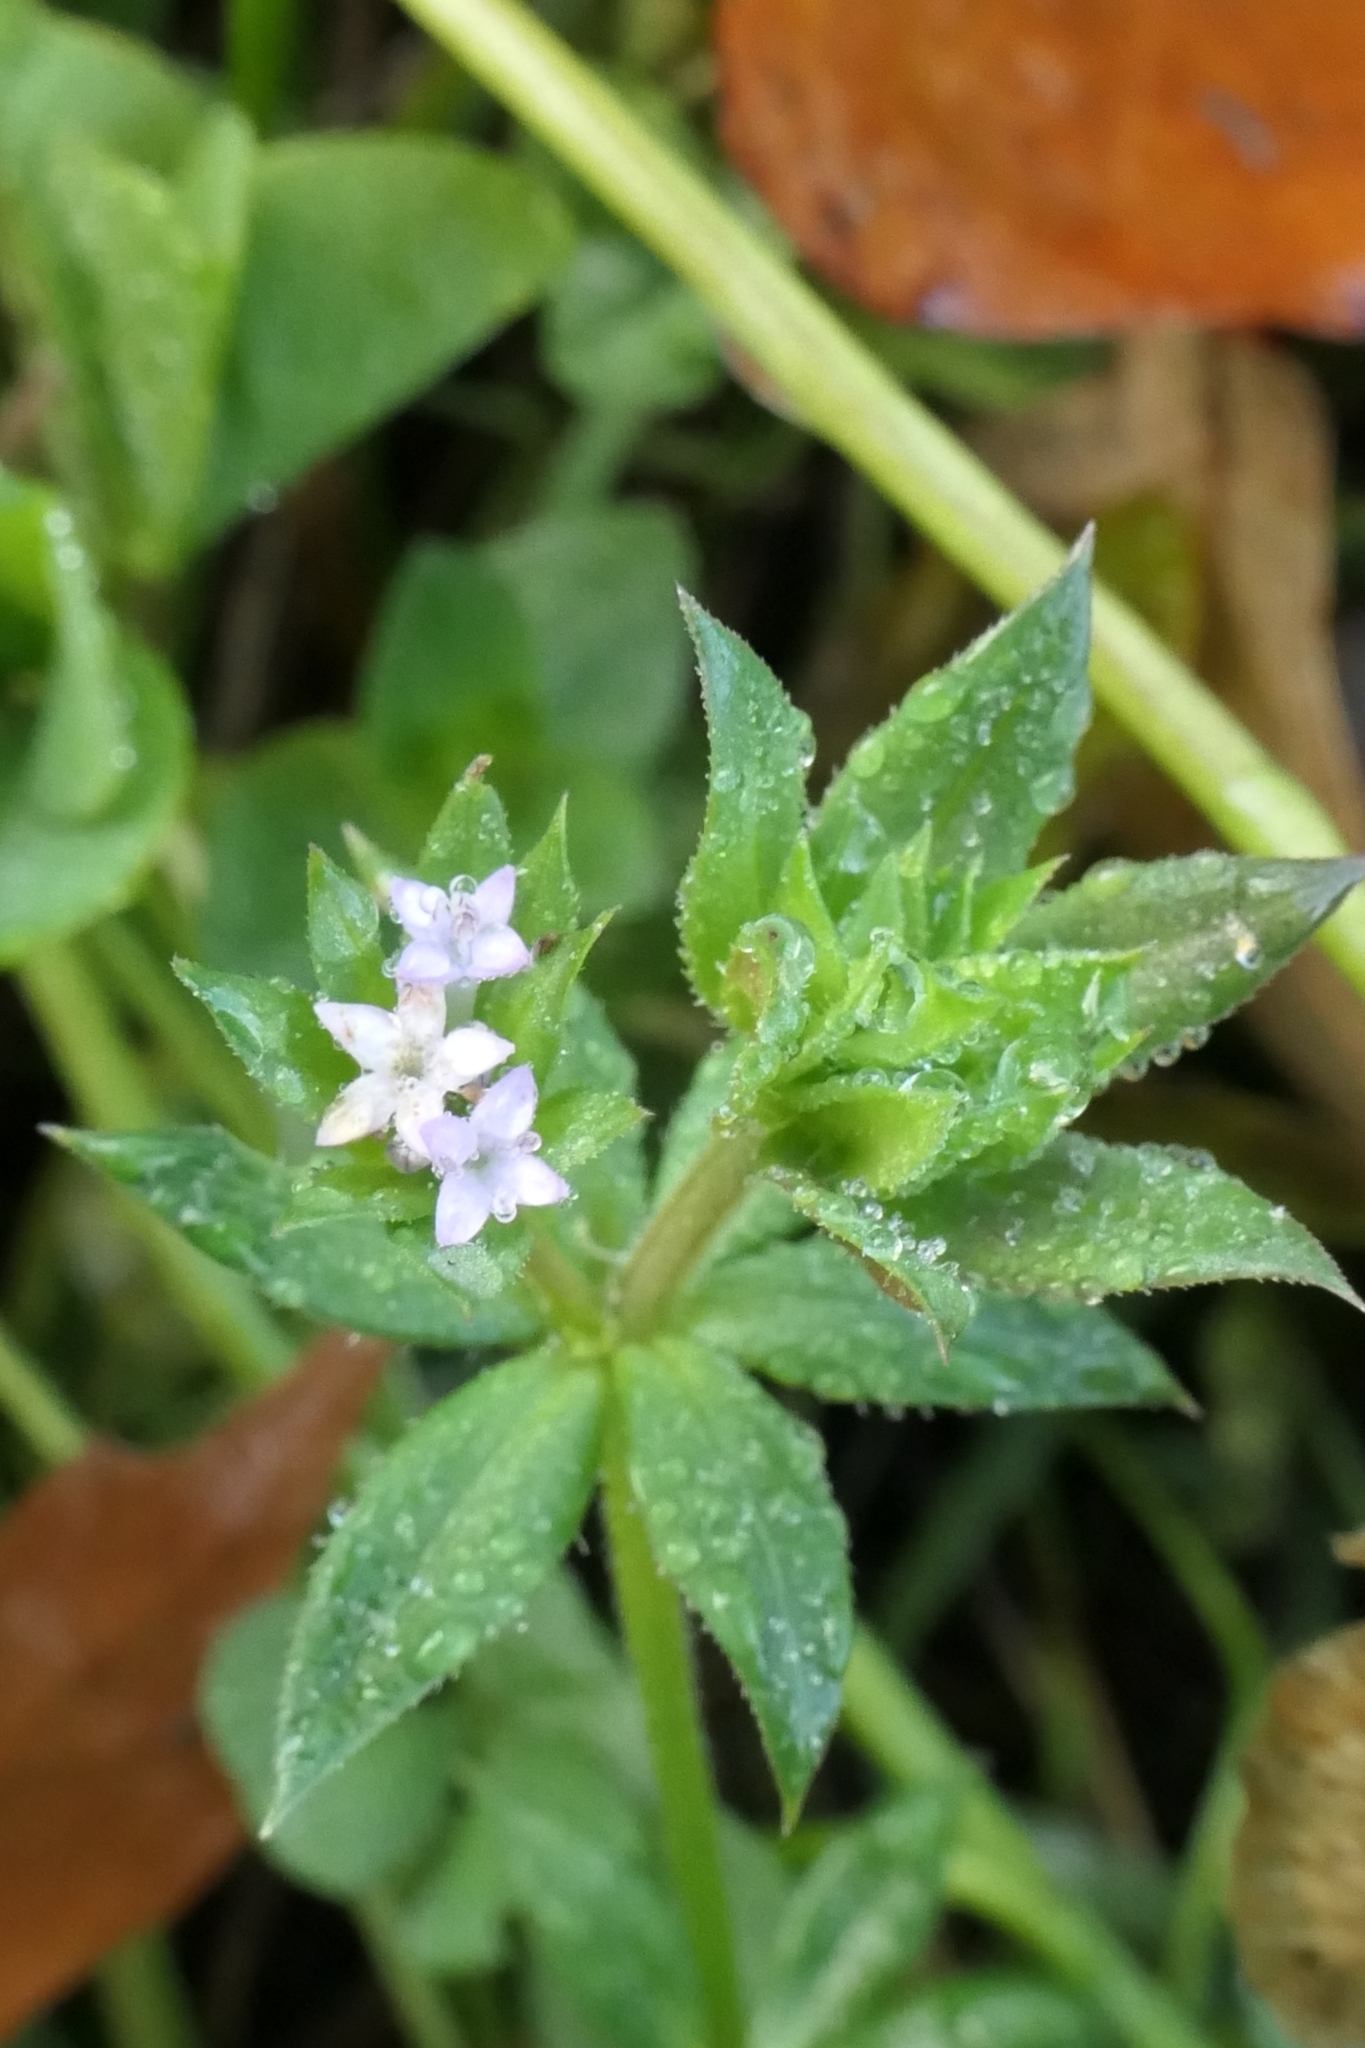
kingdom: Plantae
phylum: Tracheophyta
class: Magnoliopsida
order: Gentianales
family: Rubiaceae
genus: Sherardia
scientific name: Sherardia arvensis
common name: Field madder
